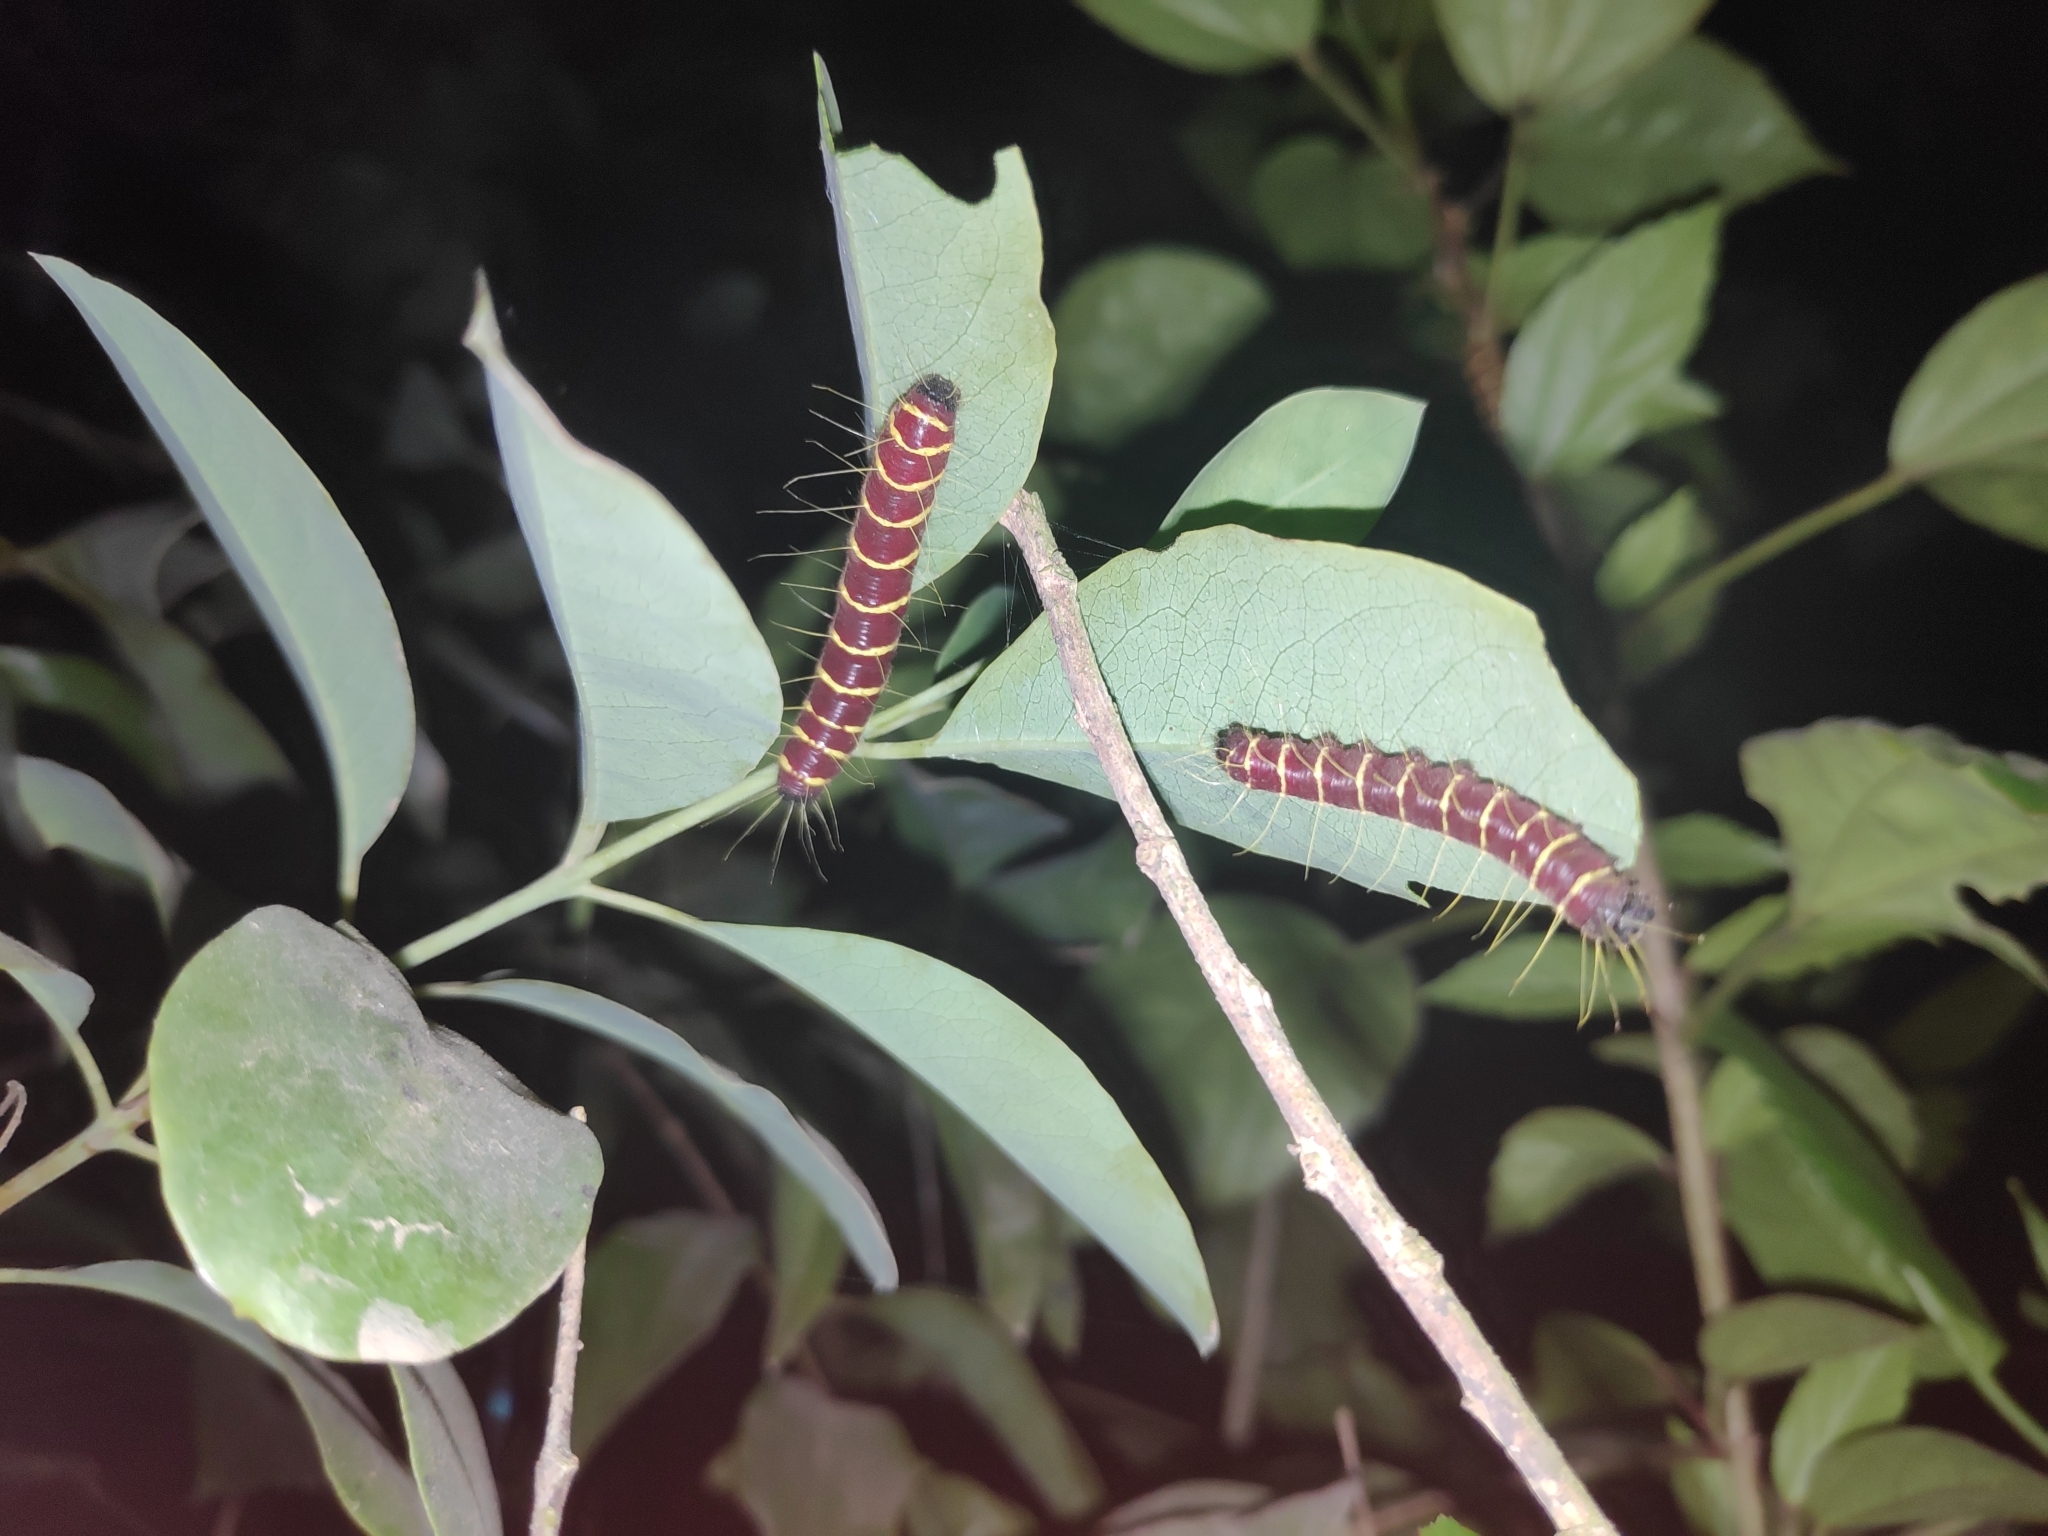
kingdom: Animalia
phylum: Arthropoda
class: Insecta
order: Lepidoptera
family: Pieridae
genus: Delias
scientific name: Delias pasithoe
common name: Red-base jezebel
